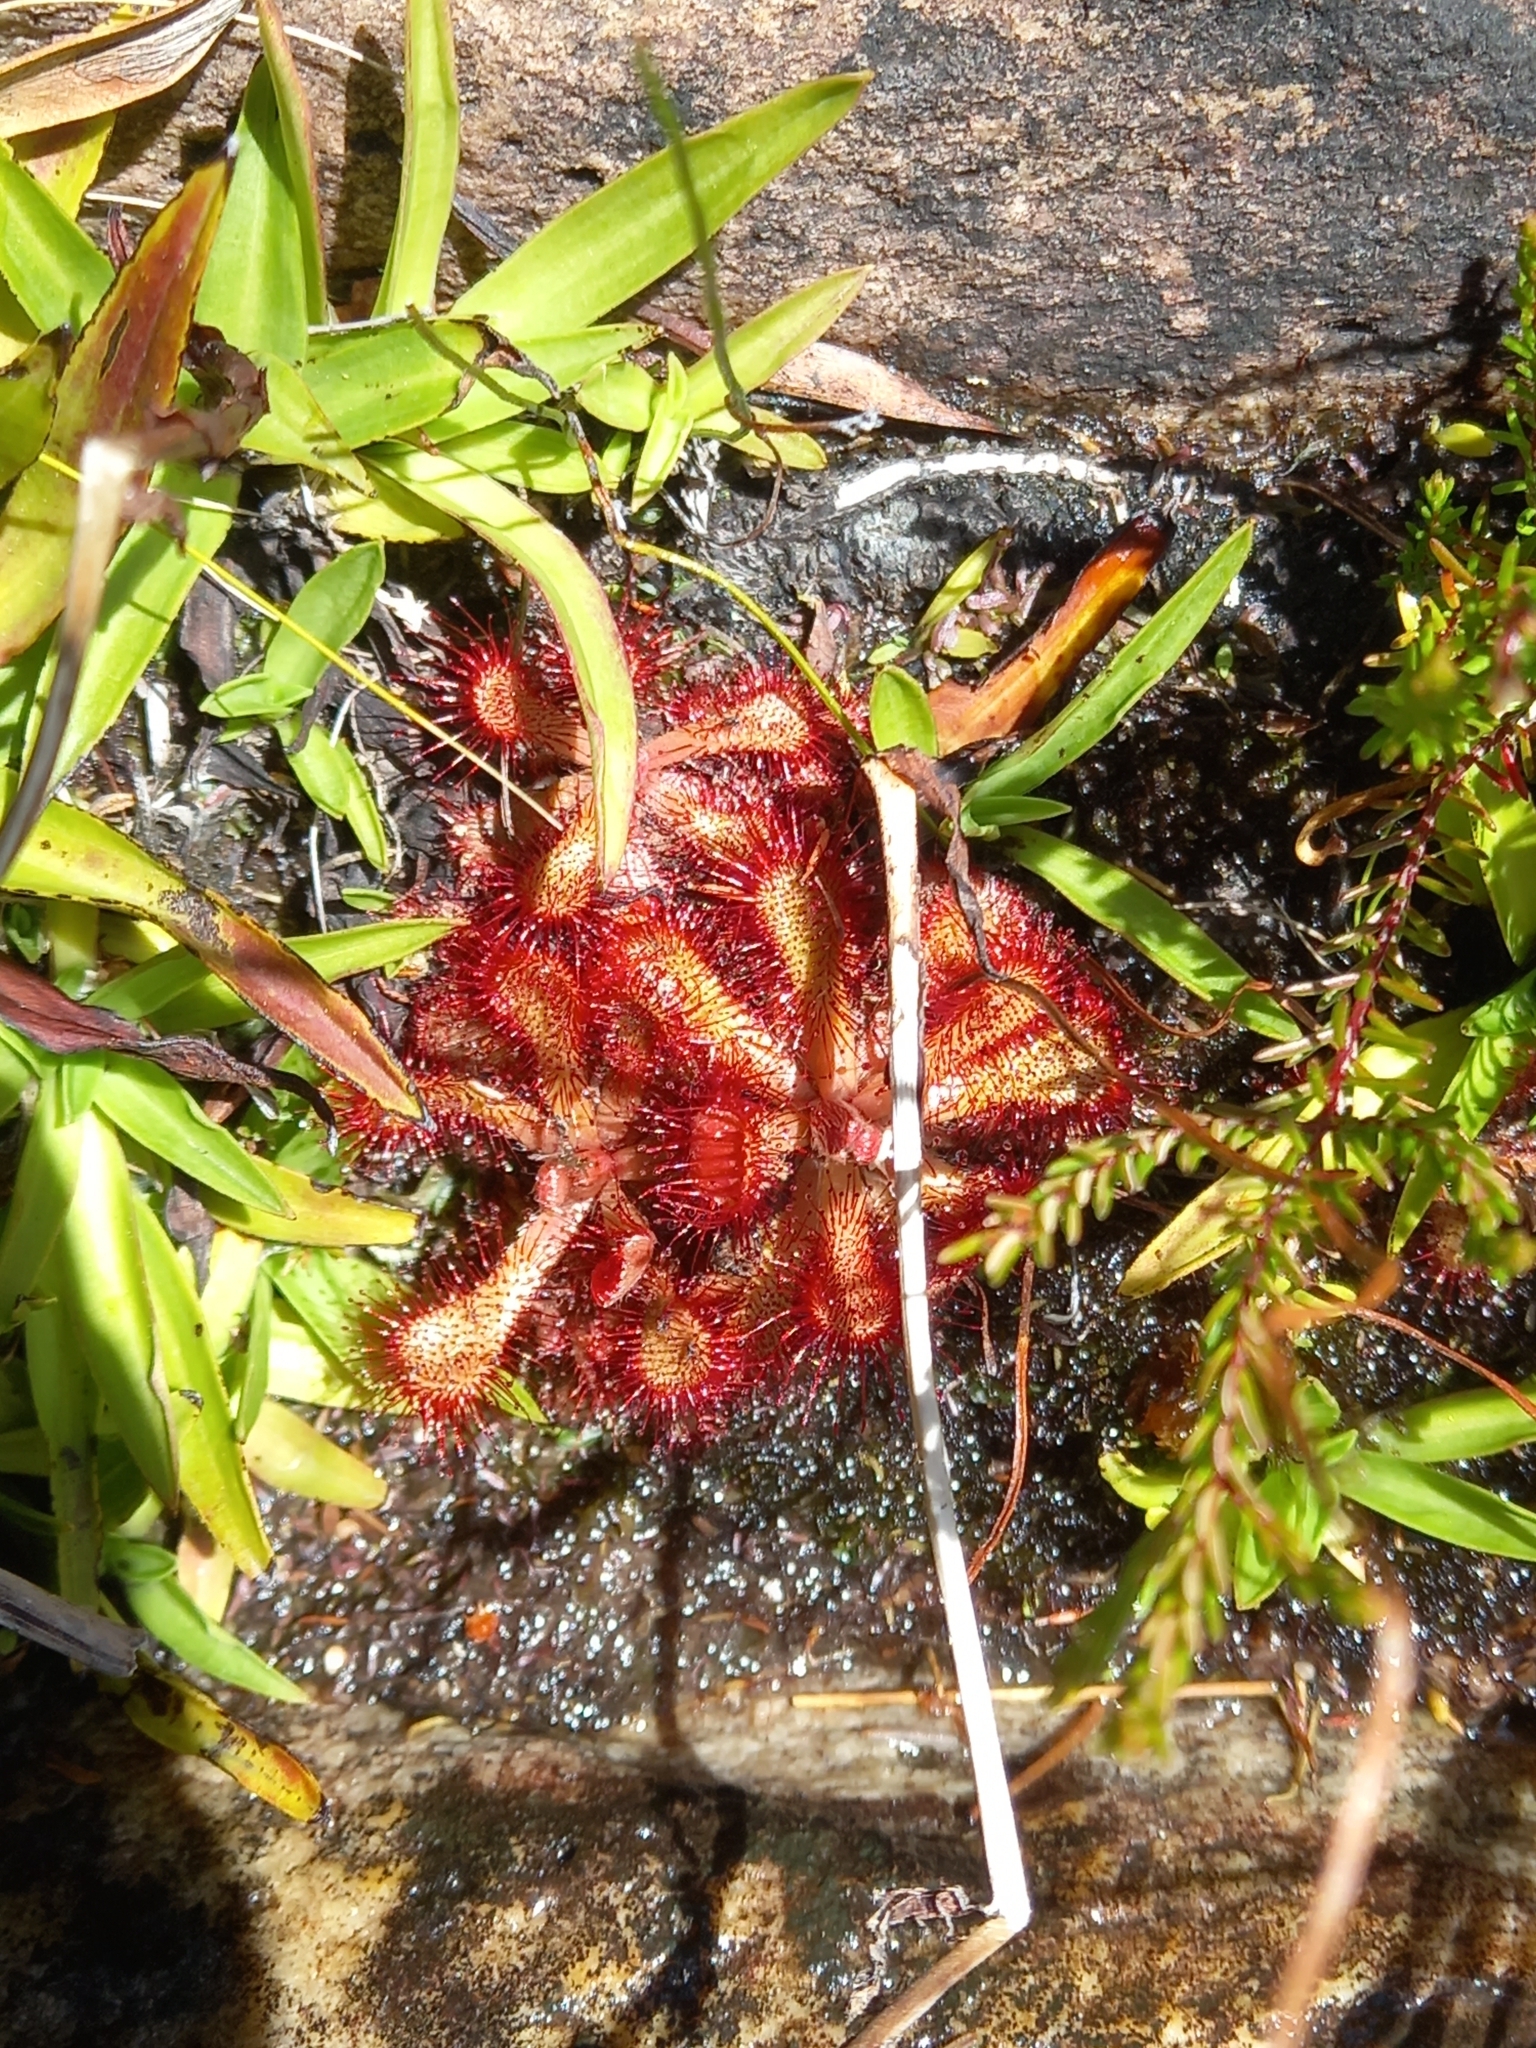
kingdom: Plantae
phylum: Tracheophyta
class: Magnoliopsida
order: Caryophyllales
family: Droseraceae
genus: Drosera
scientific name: Drosera natalensis
